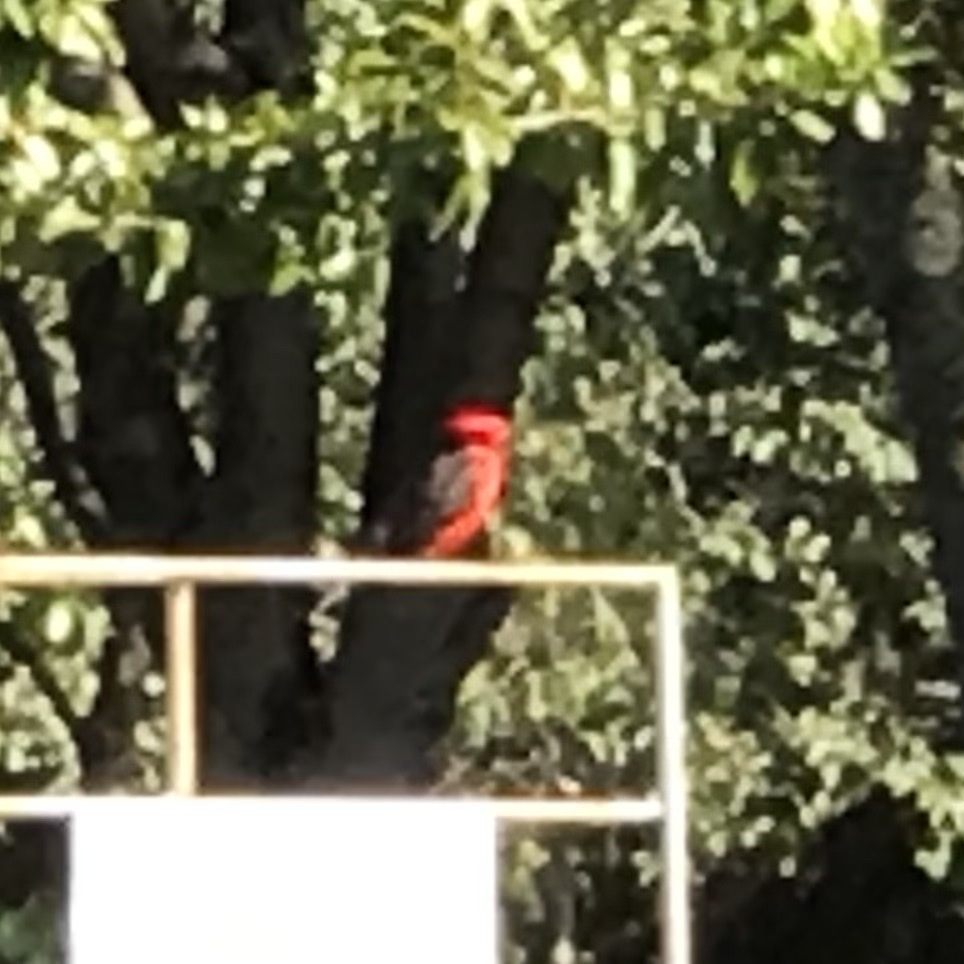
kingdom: Animalia
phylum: Chordata
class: Aves
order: Passeriformes
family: Tyrannidae
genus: Pyrocephalus
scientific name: Pyrocephalus rubinus
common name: Vermilion flycatcher
